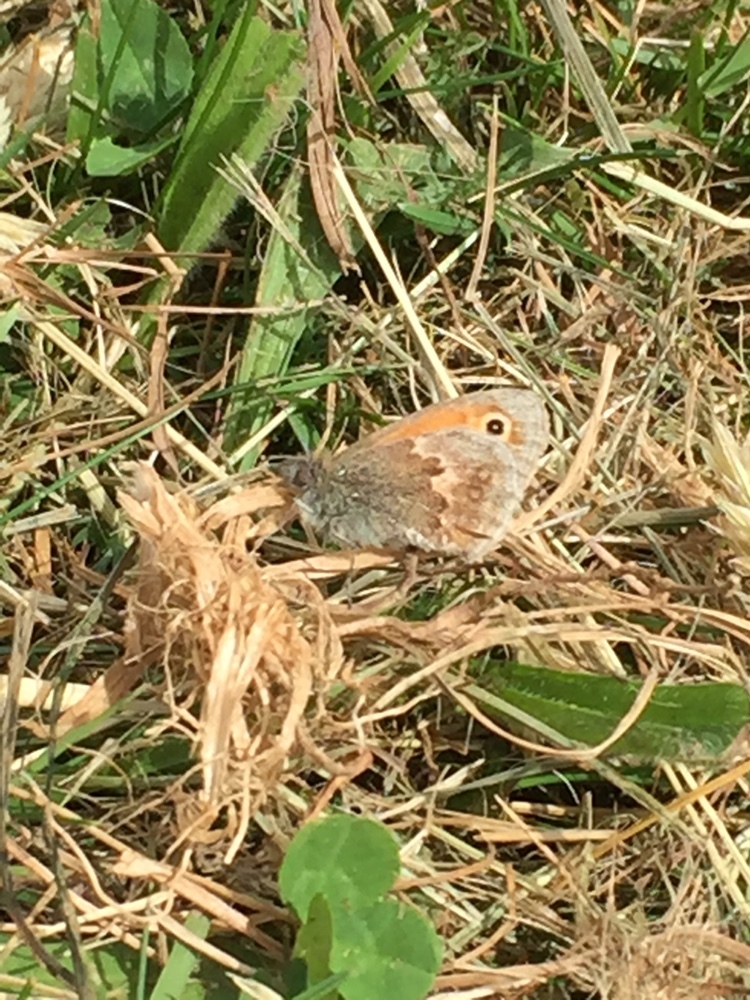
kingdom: Animalia
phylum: Arthropoda
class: Insecta
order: Lepidoptera
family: Nymphalidae
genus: Coenonympha
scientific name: Coenonympha pamphilus
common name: Small heath
